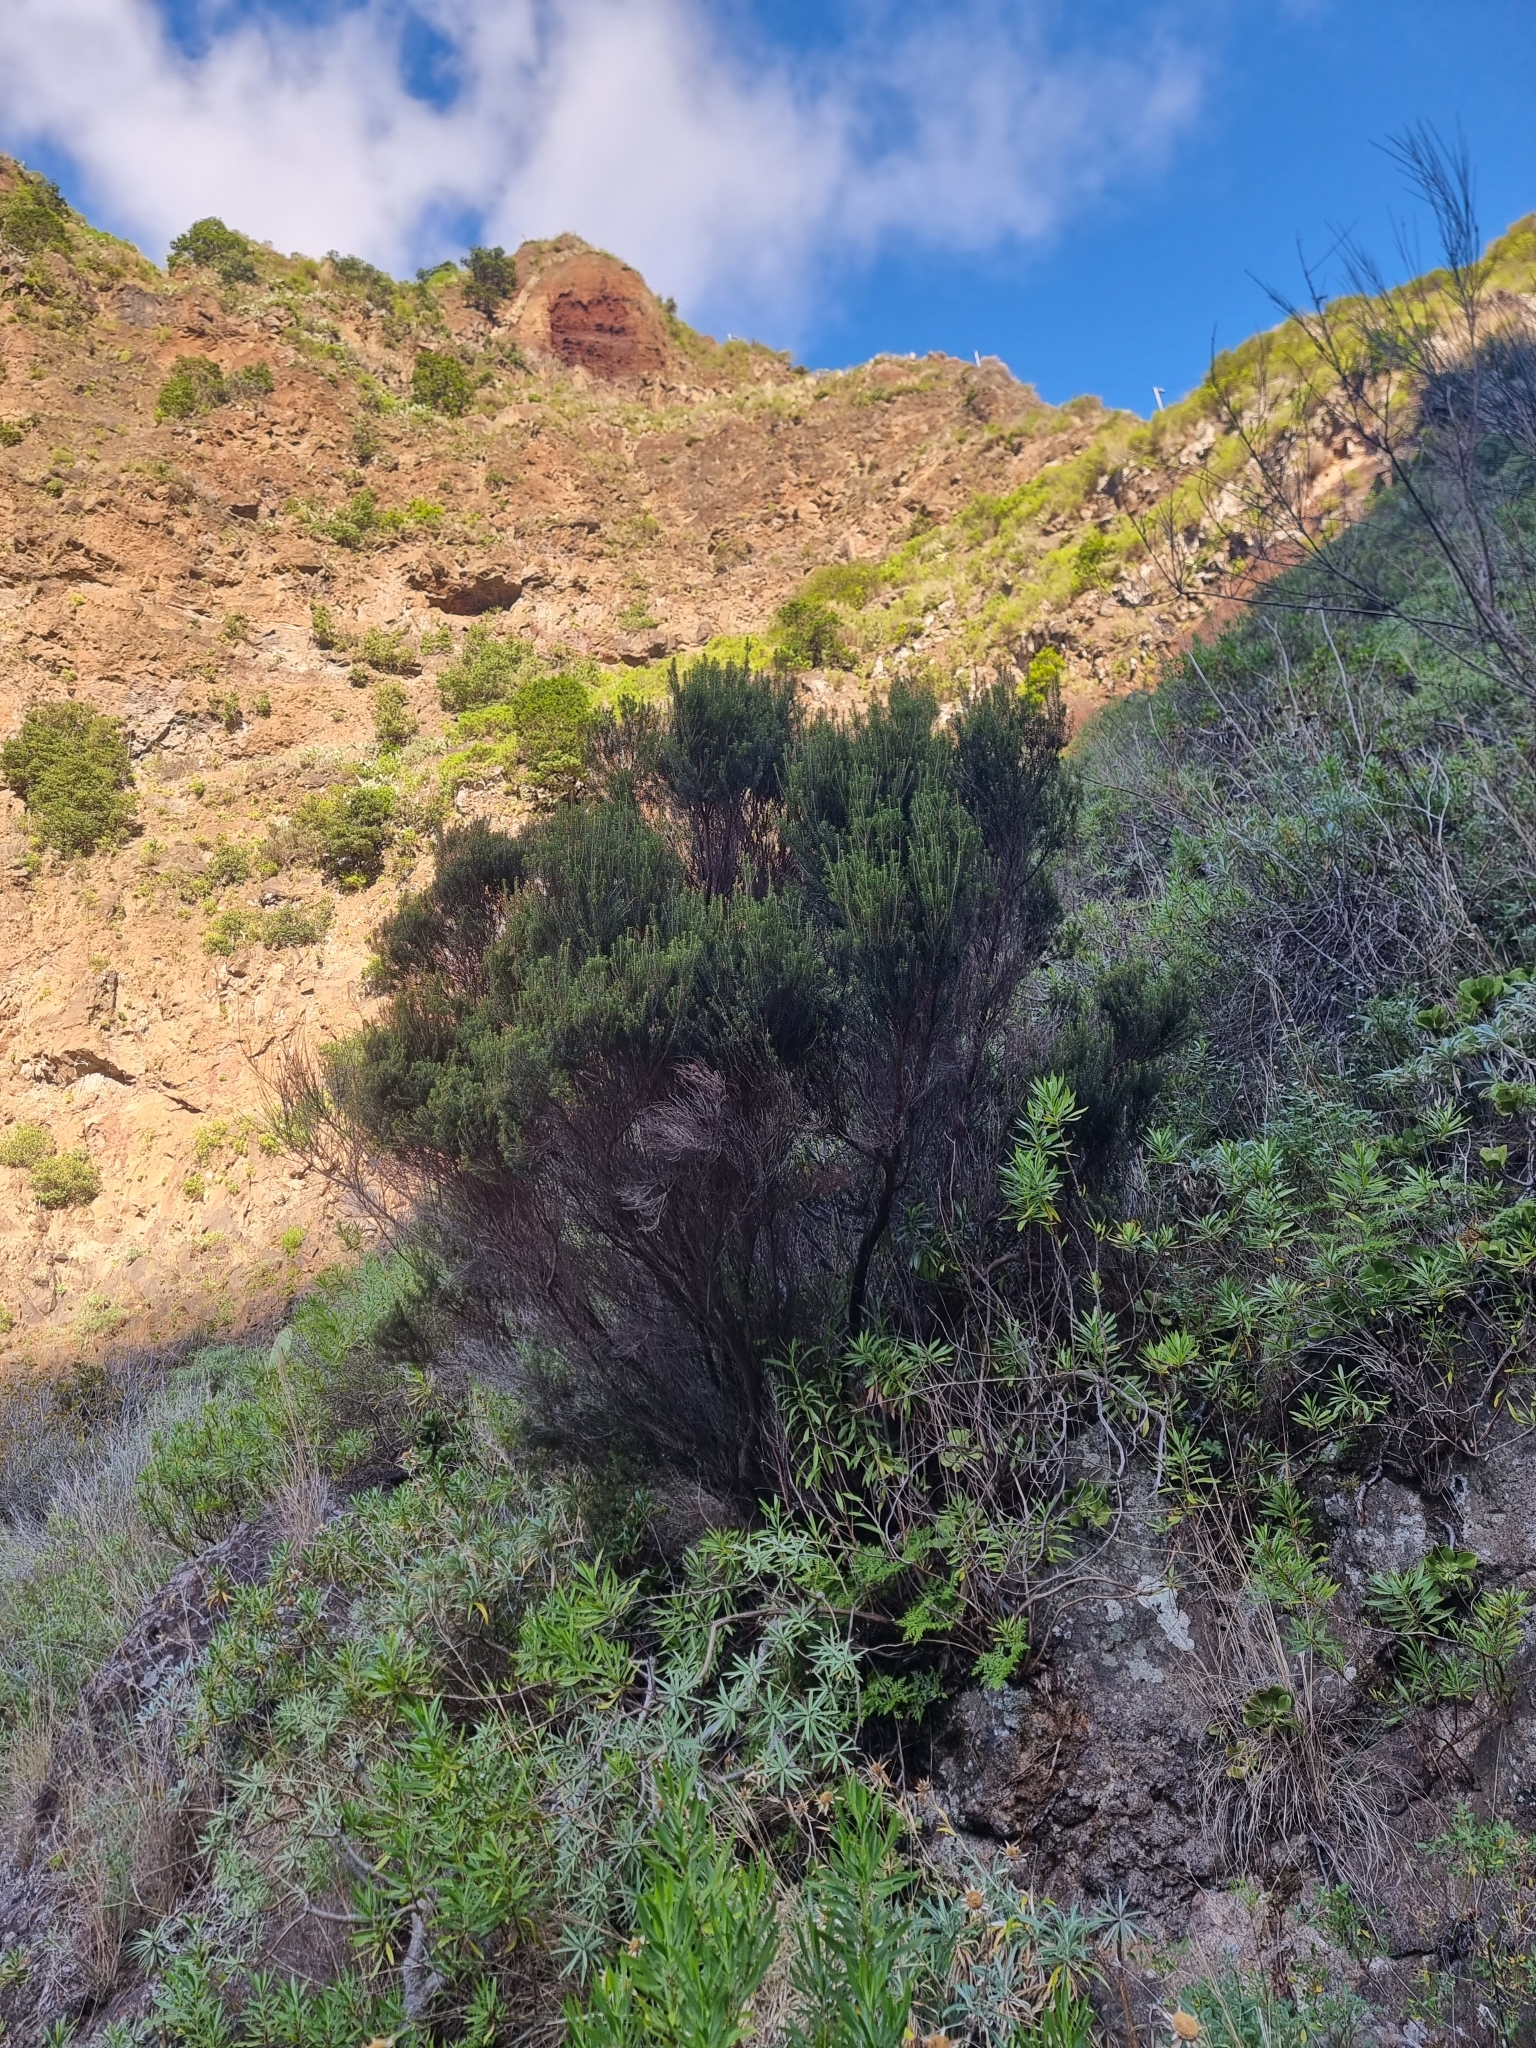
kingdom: Plantae
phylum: Tracheophyta
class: Magnoliopsida
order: Ericales
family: Ericaceae
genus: Erica
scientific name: Erica platycodon
